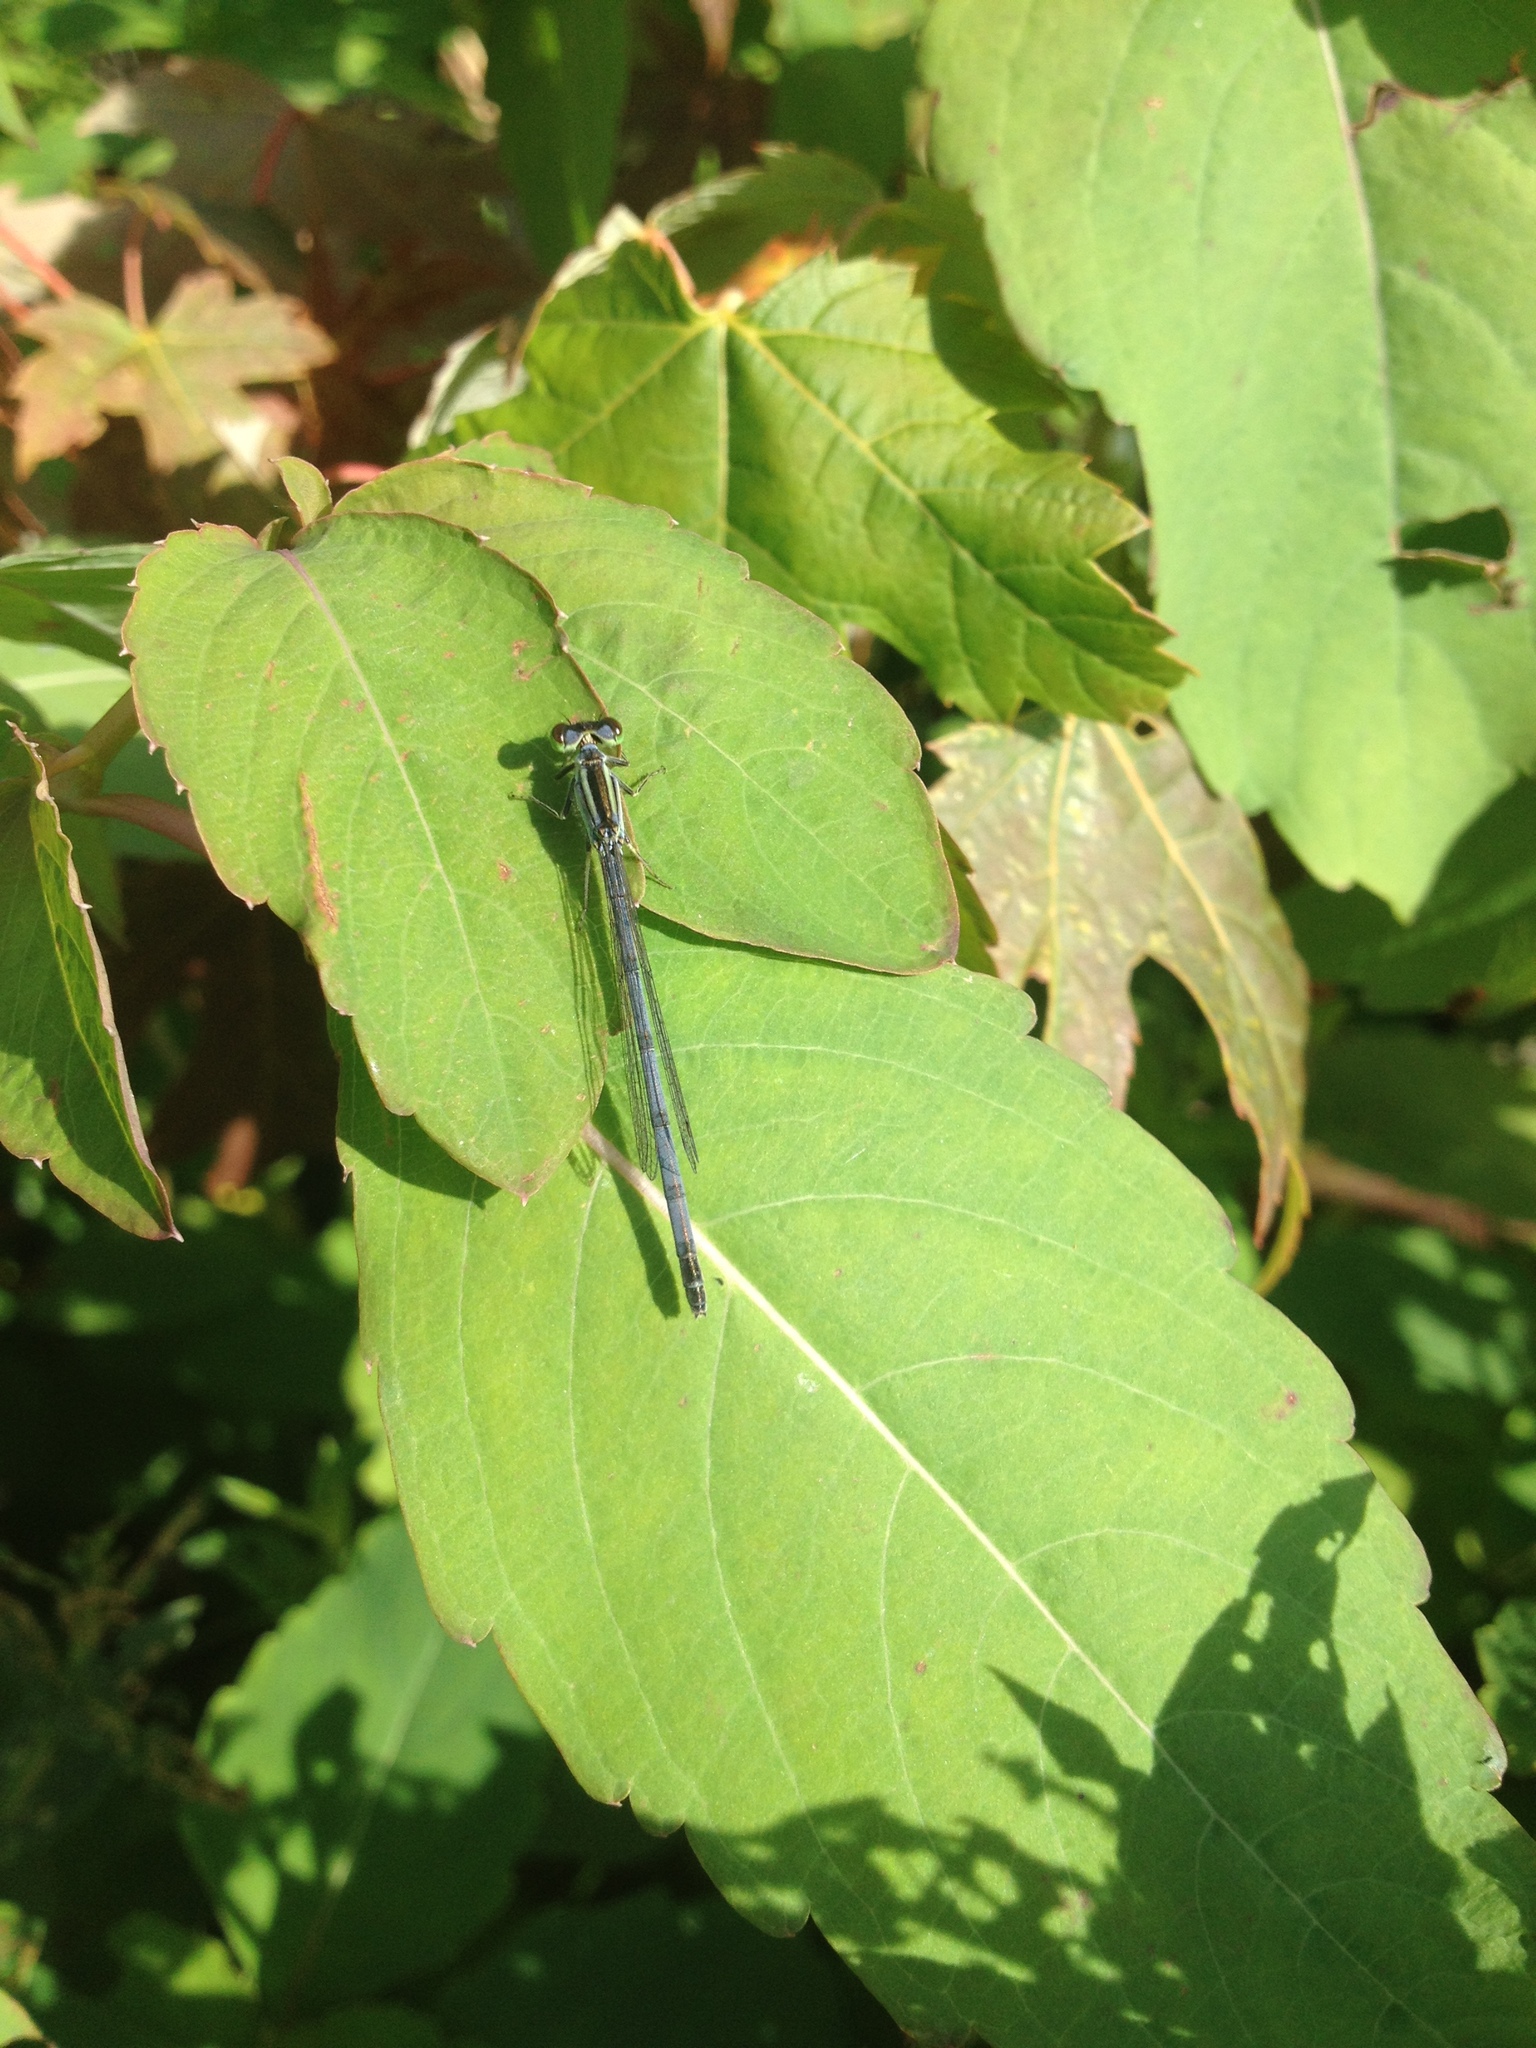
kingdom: Animalia
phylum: Arthropoda
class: Insecta
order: Odonata
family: Coenagrionidae
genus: Ischnura
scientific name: Ischnura verticalis
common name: Eastern forktail
